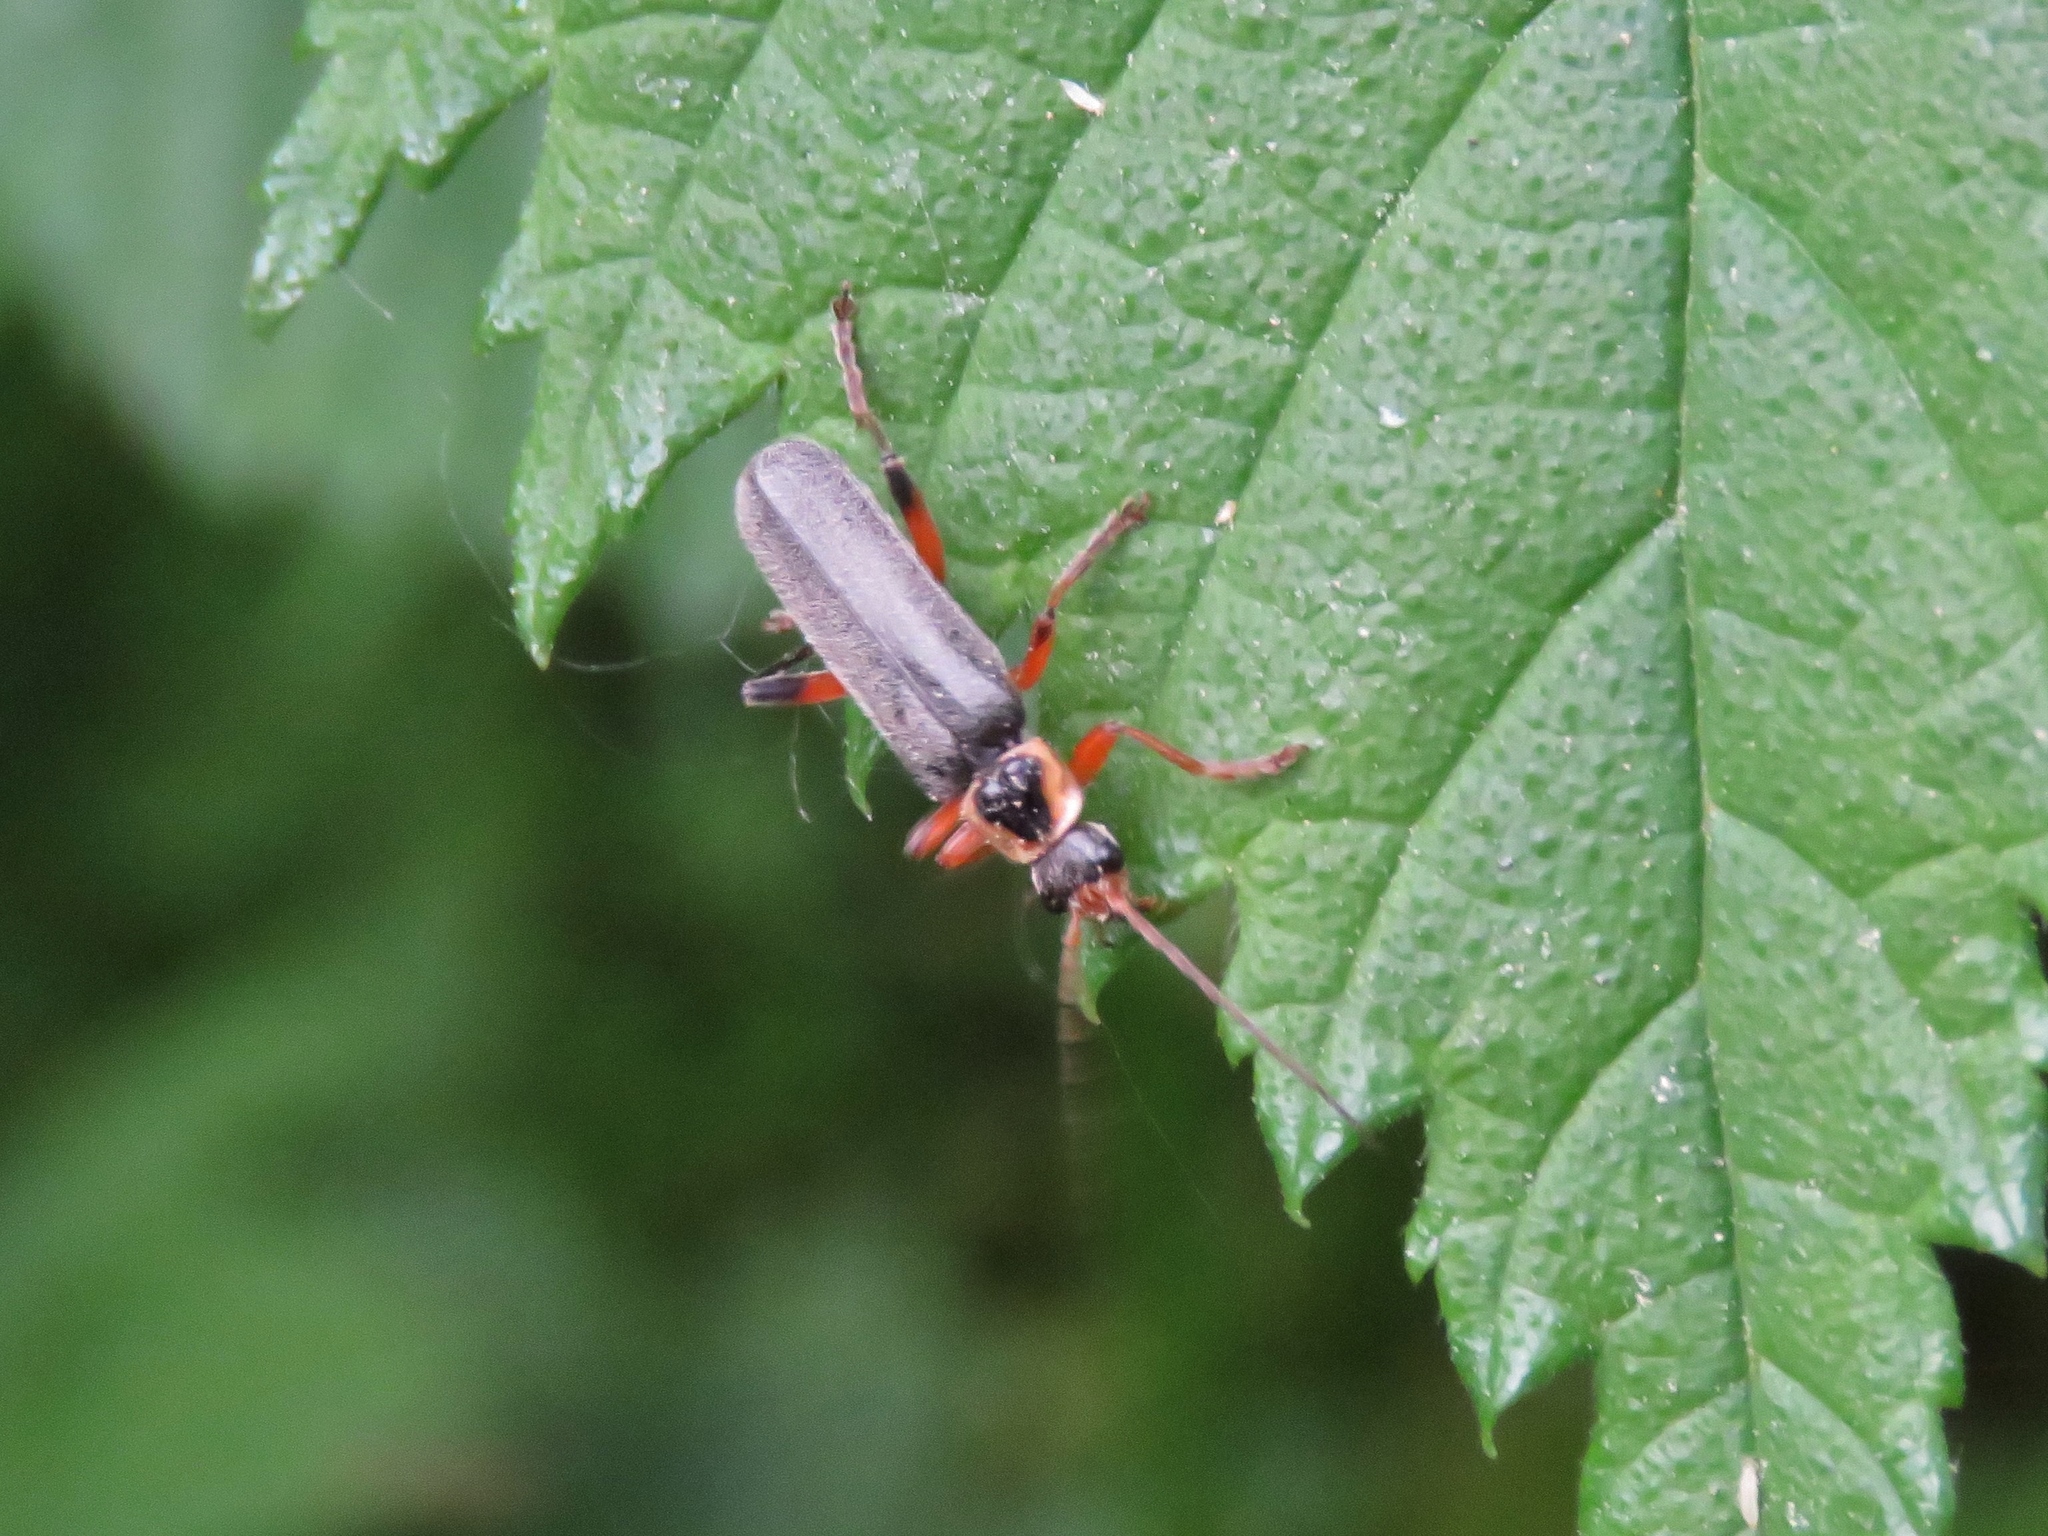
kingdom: Animalia
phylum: Arthropoda
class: Insecta
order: Coleoptera
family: Cantharidae
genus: Cantharis
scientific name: Cantharis nigricans
